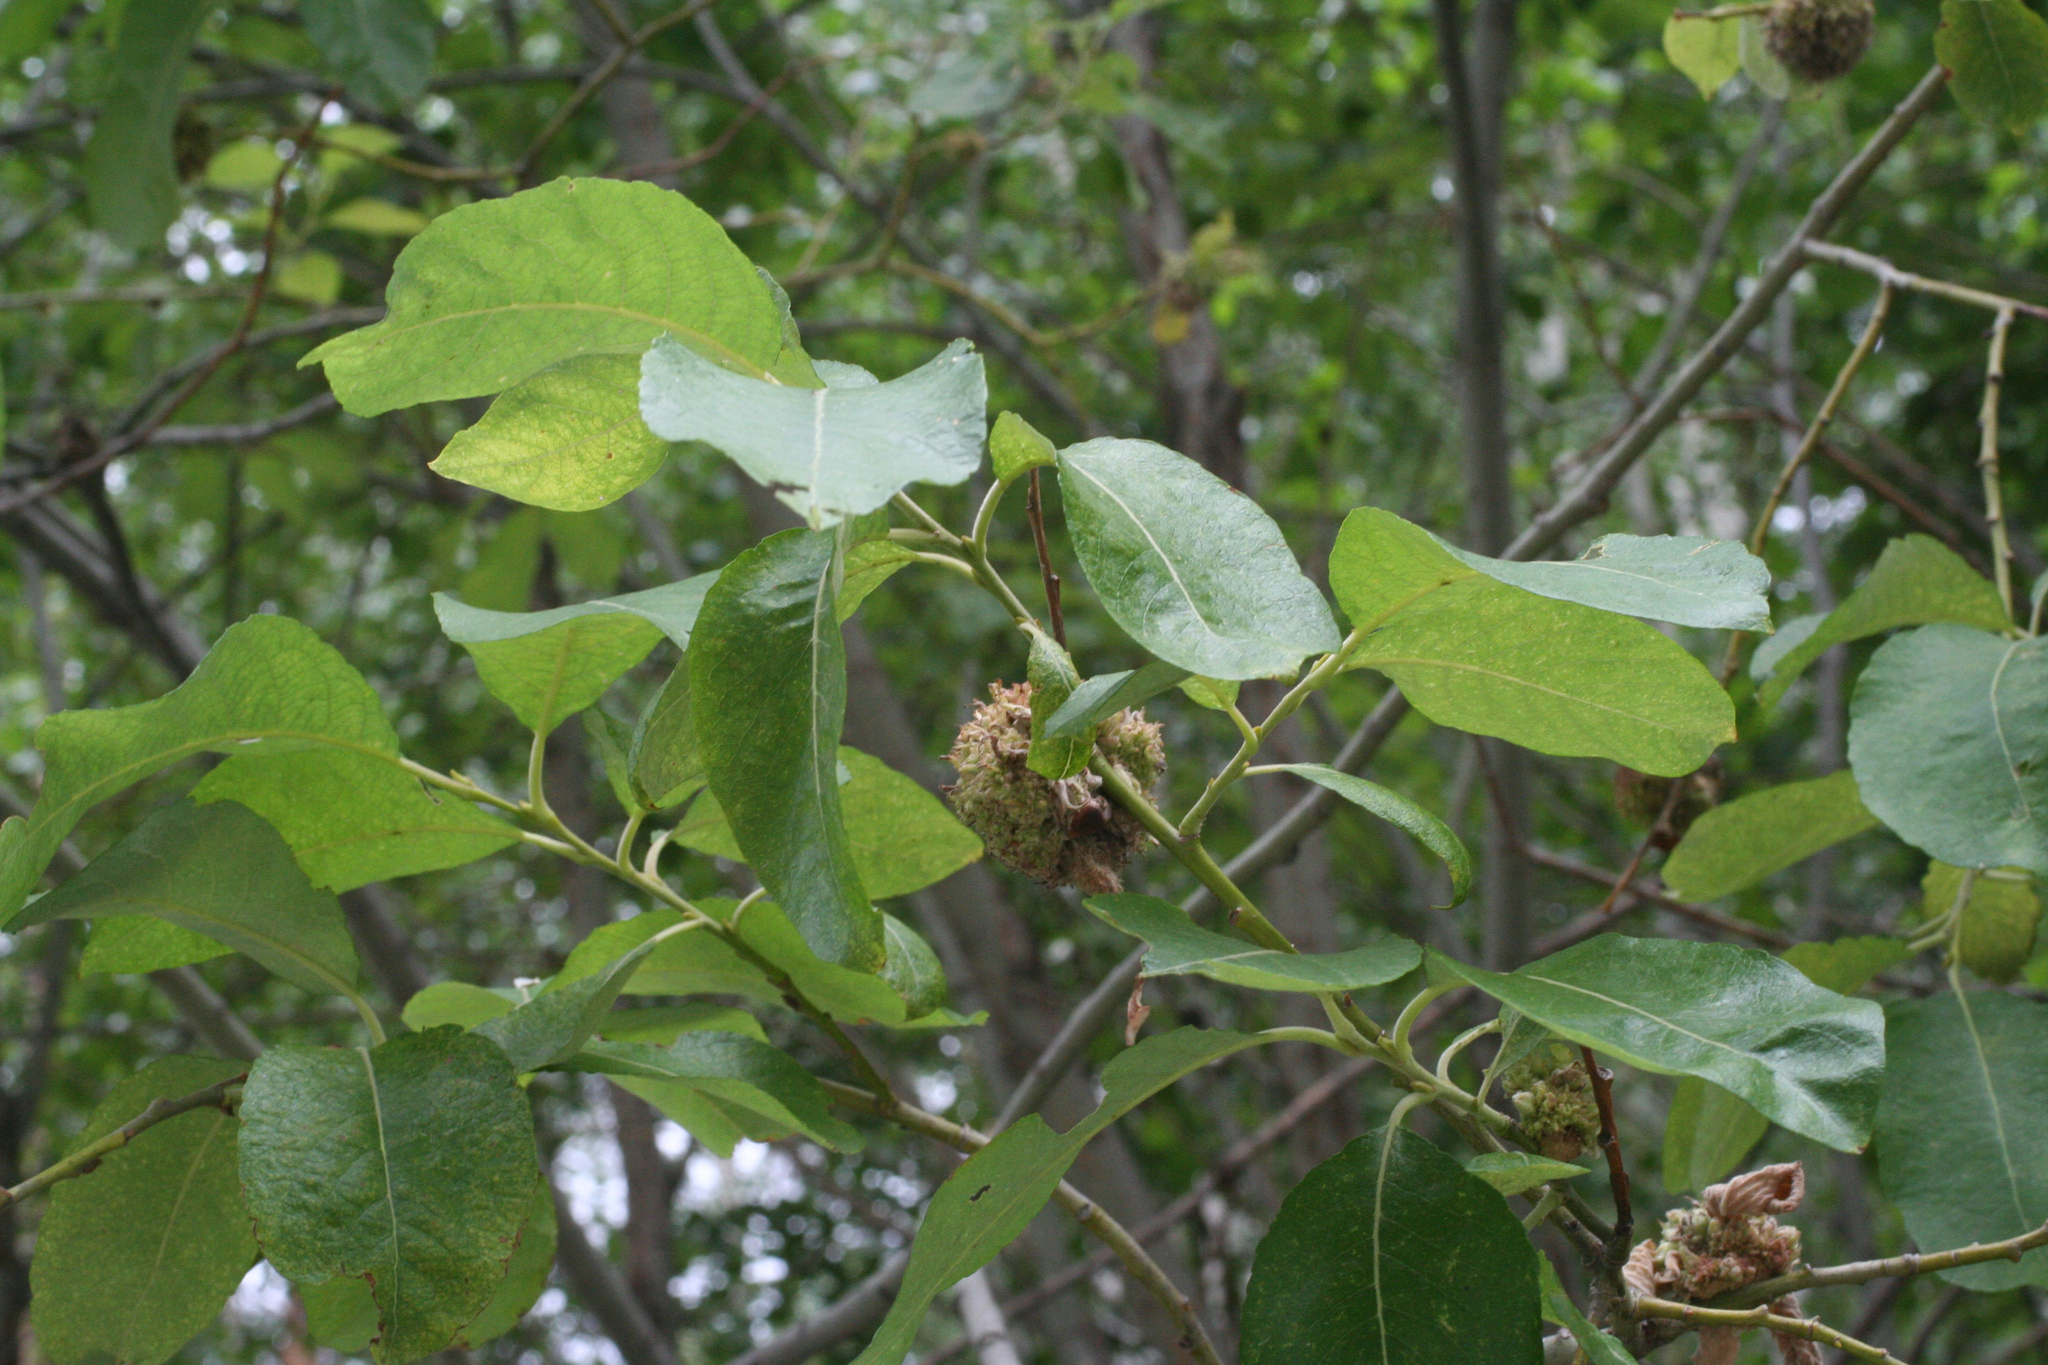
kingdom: Plantae
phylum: Tracheophyta
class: Magnoliopsida
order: Malpighiales
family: Salicaceae
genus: Salix
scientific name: Salix caprea
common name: Goat willow
